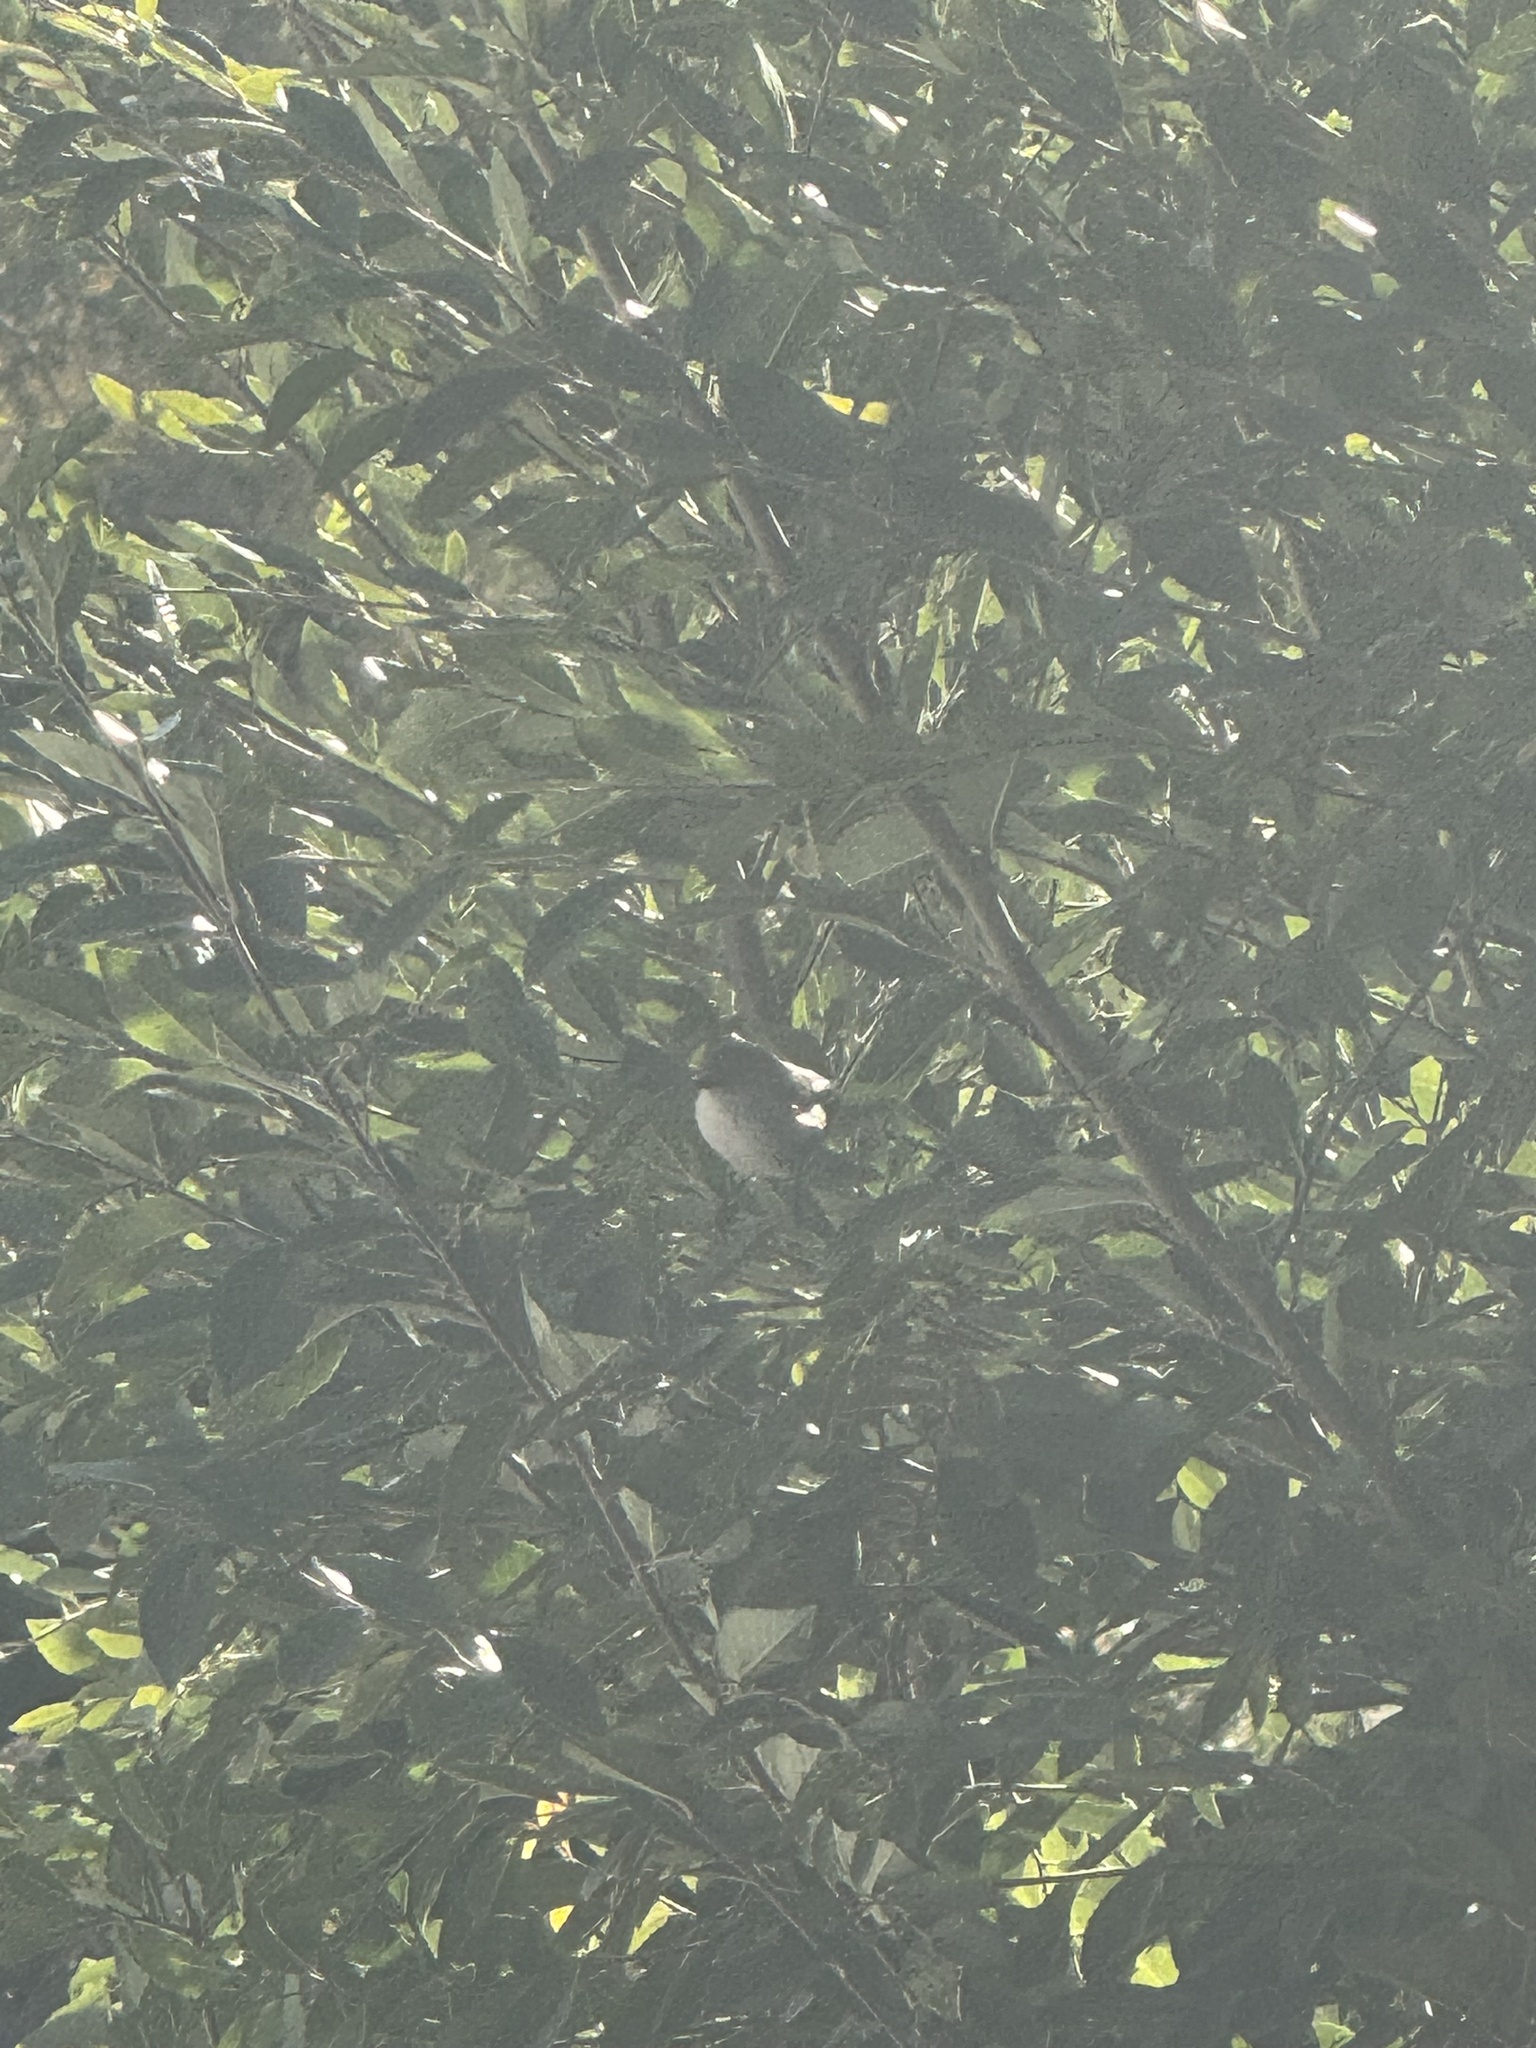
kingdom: Animalia
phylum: Chordata
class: Aves
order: Passeriformes
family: Aegithalidae
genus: Psaltriparus
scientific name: Psaltriparus minimus
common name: American bushtit
